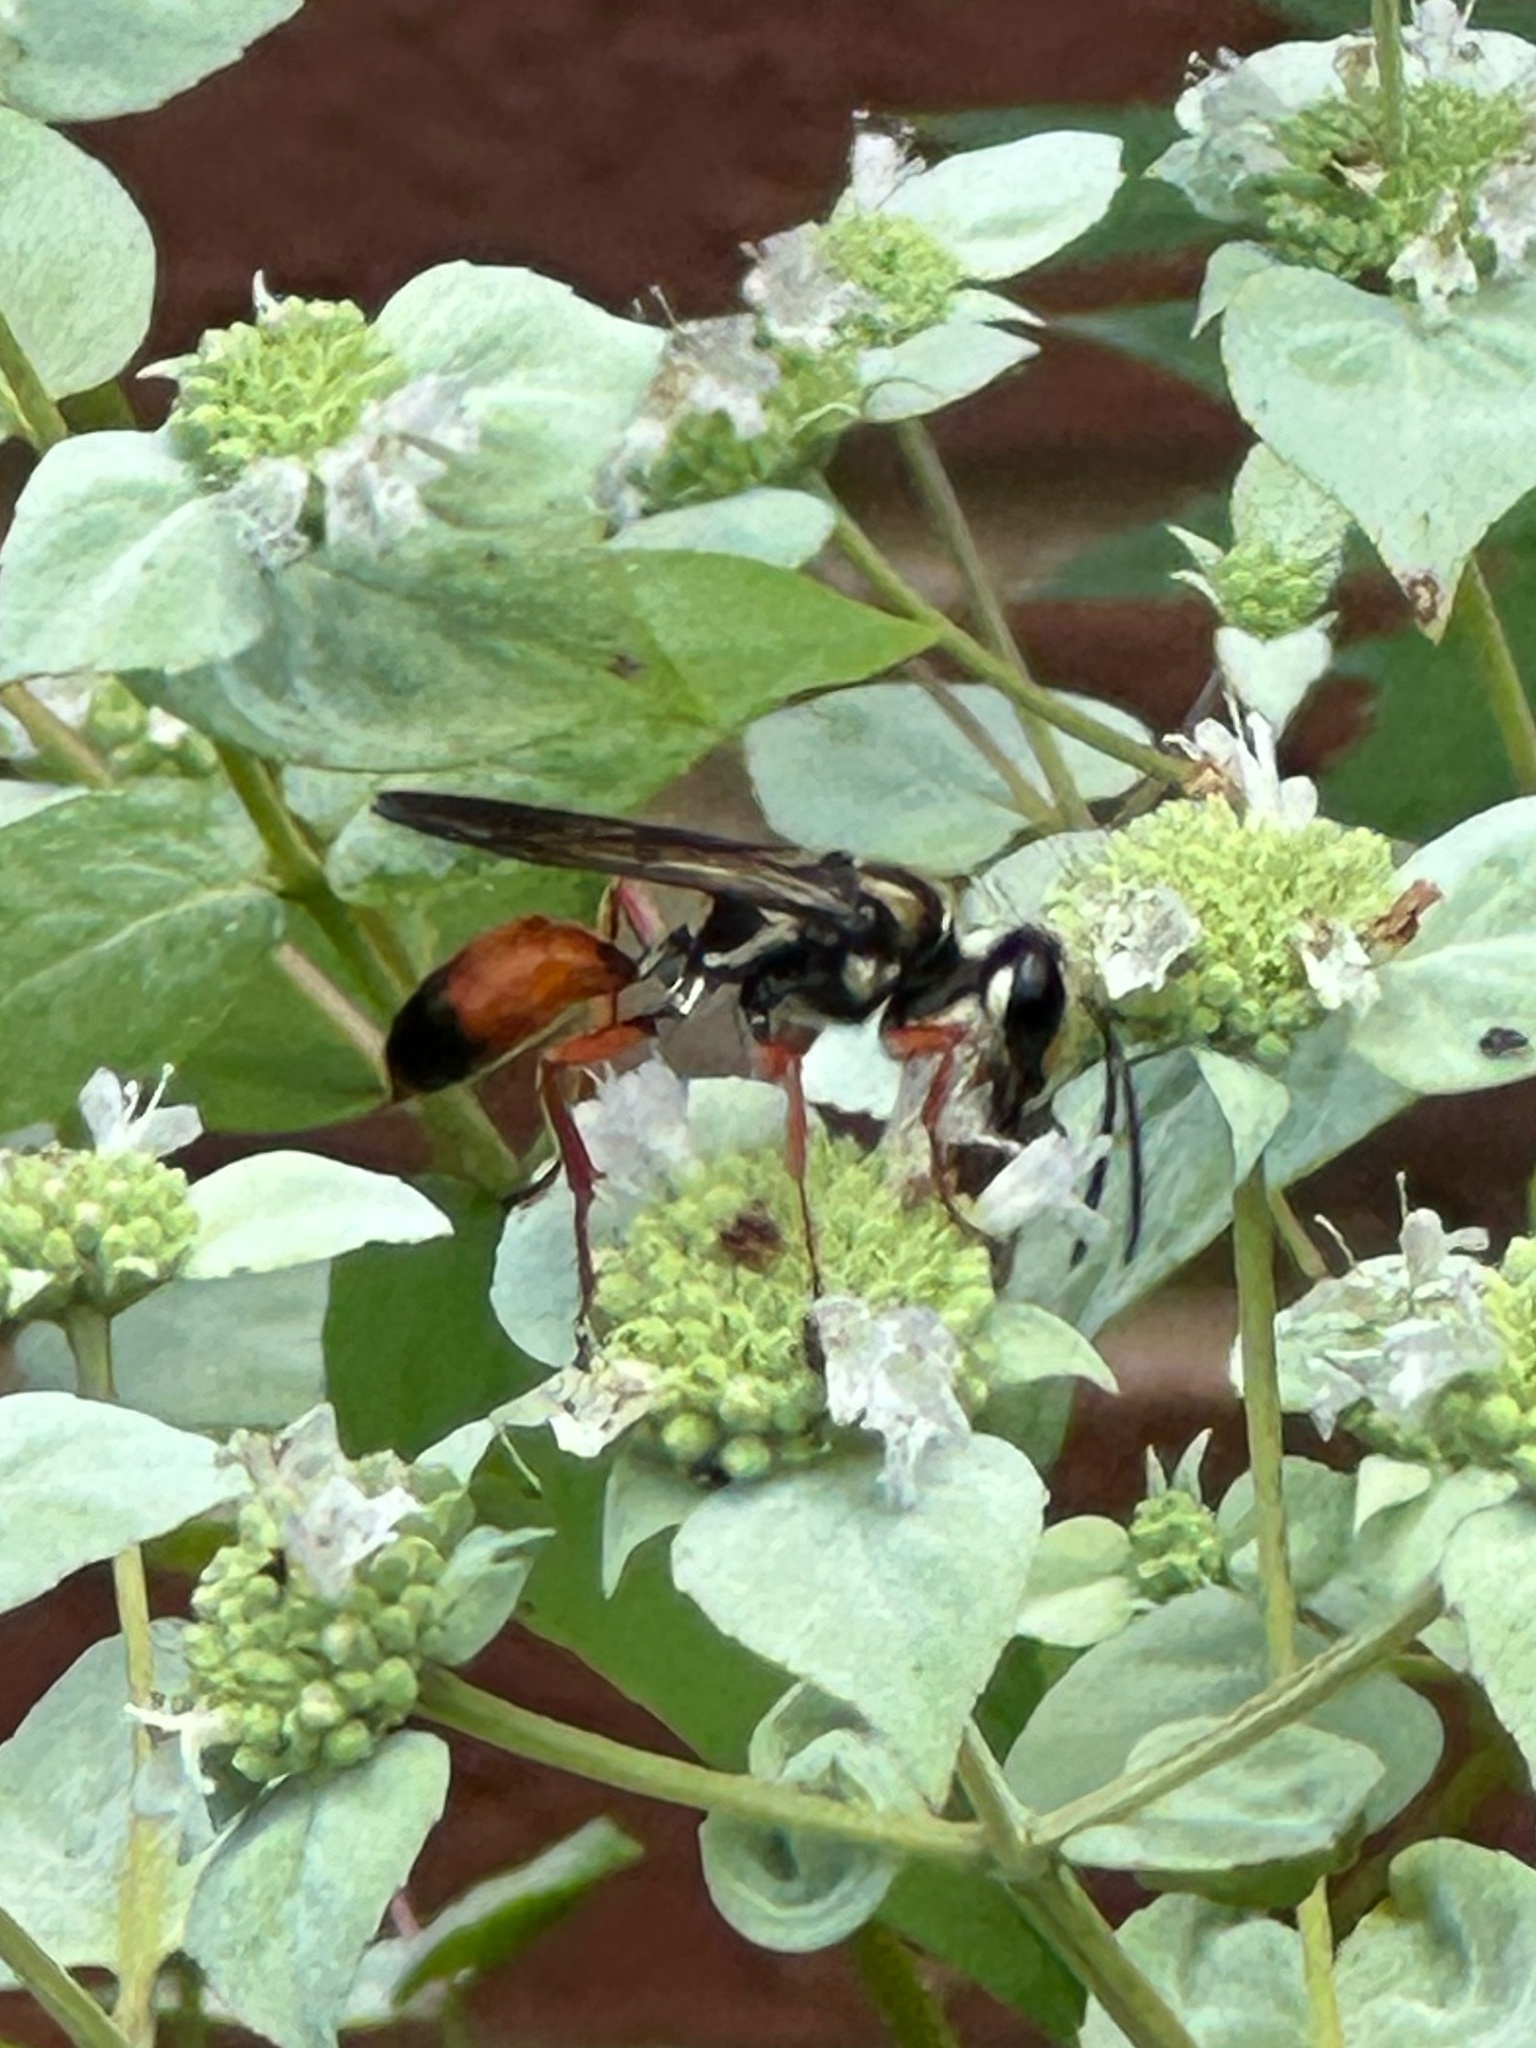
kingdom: Animalia
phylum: Arthropoda
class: Insecta
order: Hymenoptera
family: Sphecidae
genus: Sphex
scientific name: Sphex dorsalis
